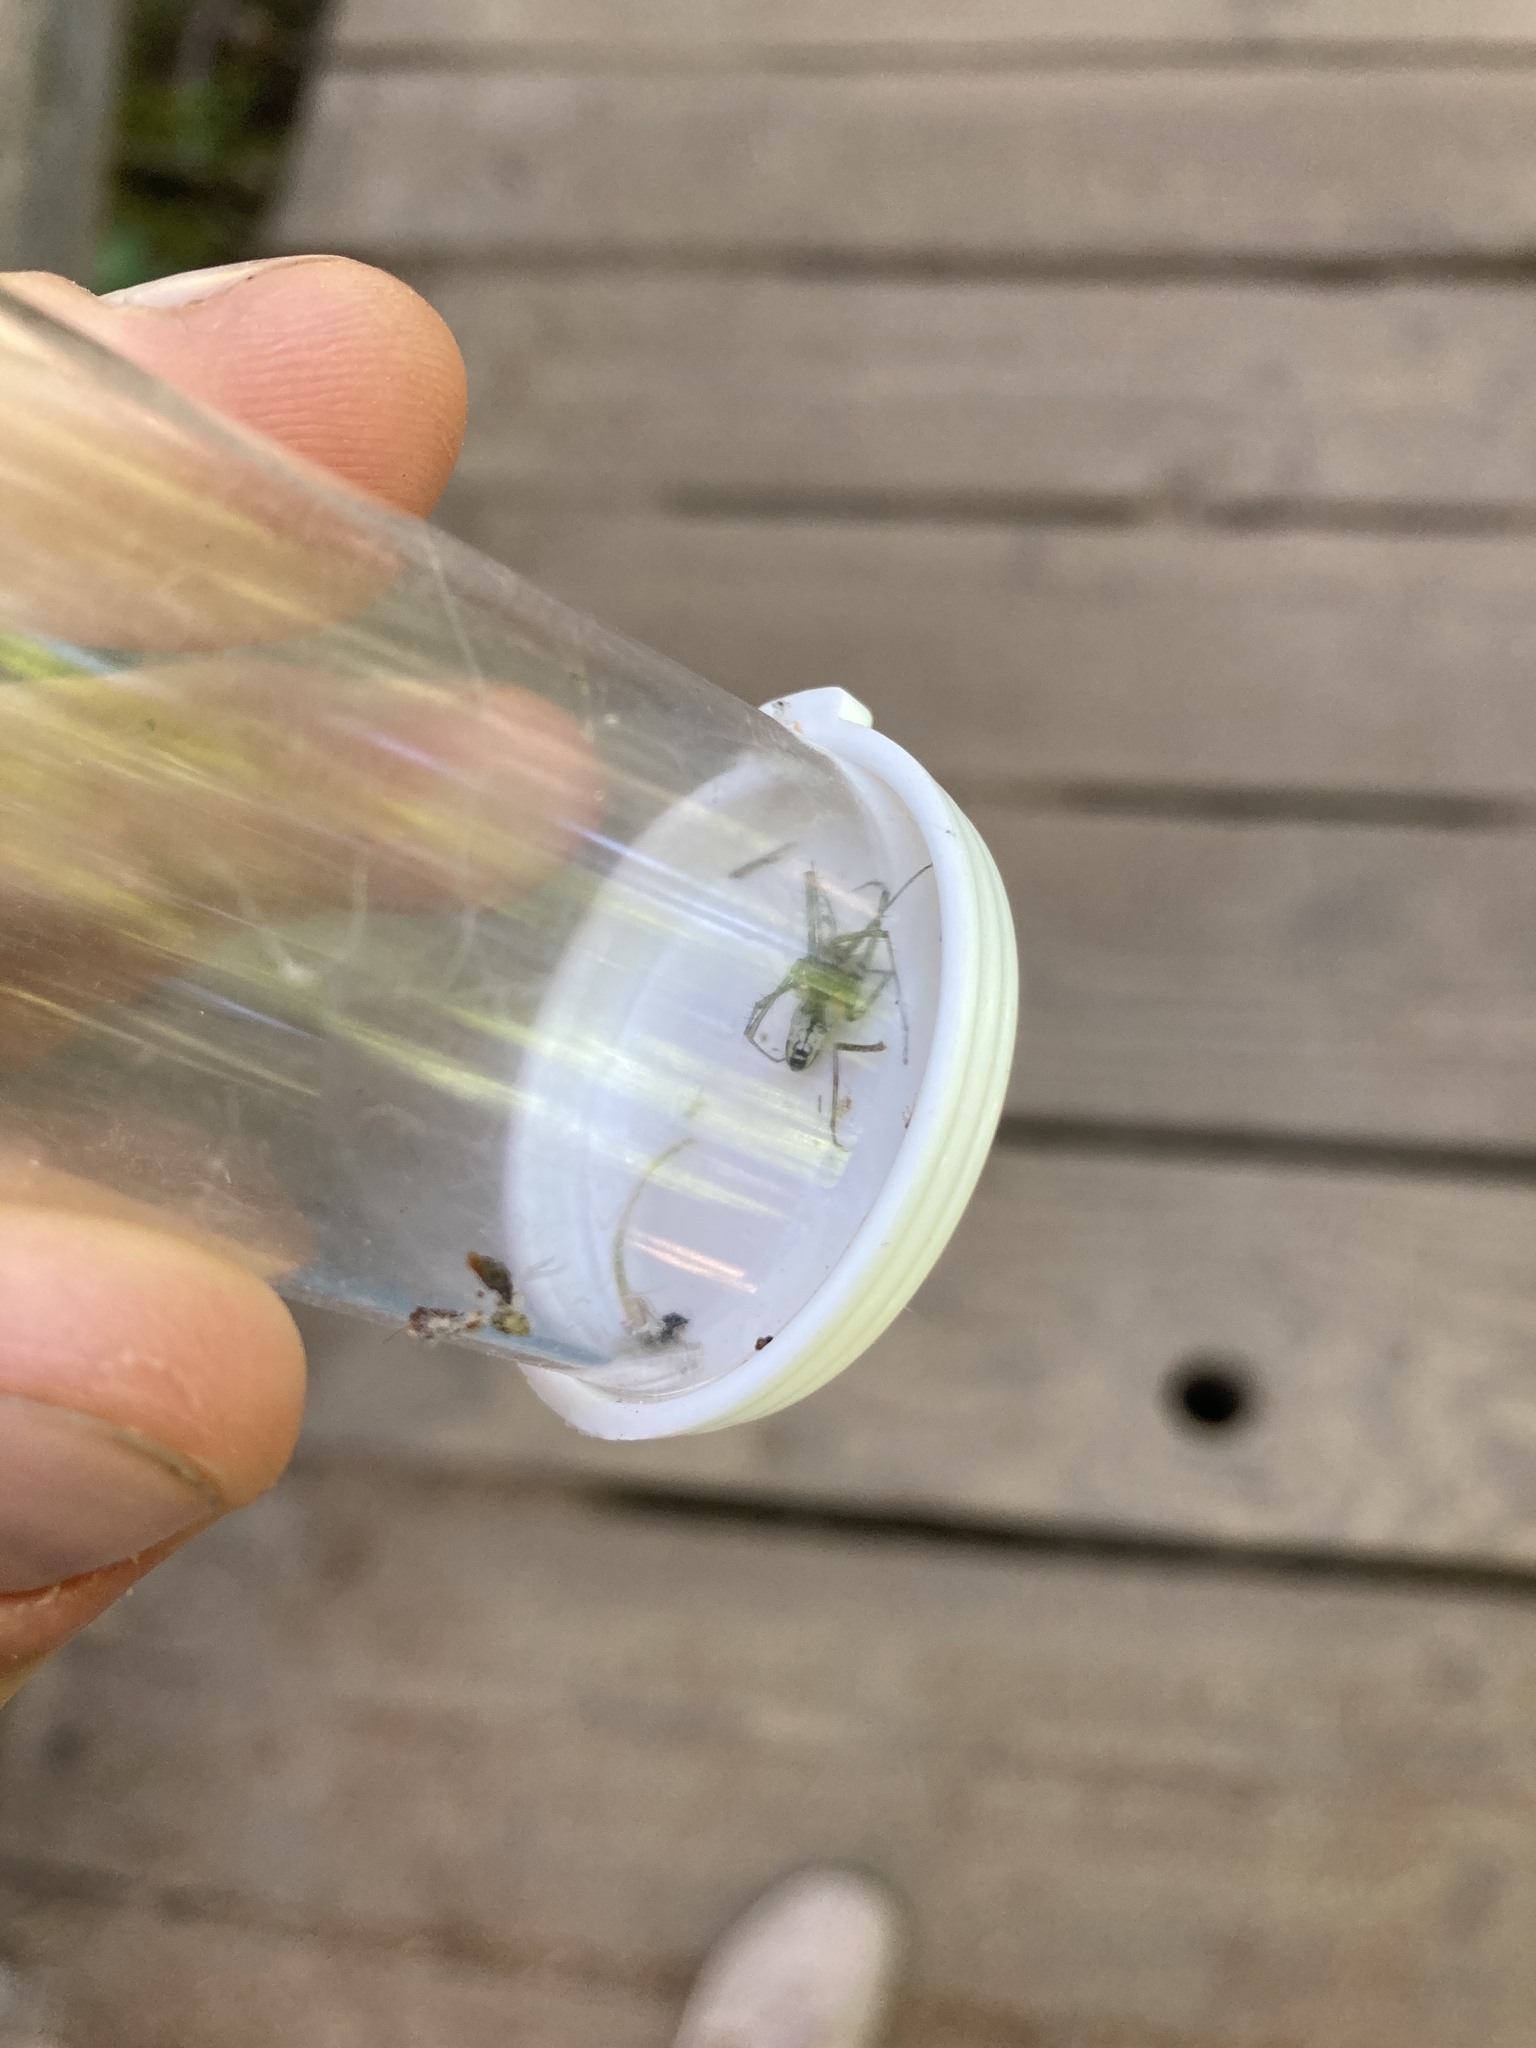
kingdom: Animalia
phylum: Arthropoda
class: Arachnida
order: Araneae
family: Linyphiidae
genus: Neriene
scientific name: Neriene litigiosa
